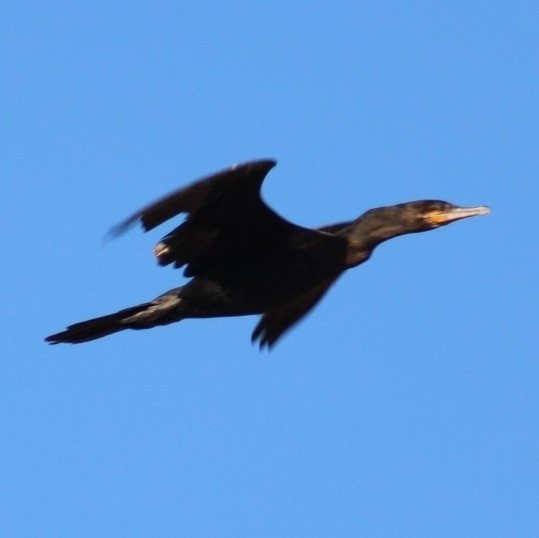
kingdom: Animalia
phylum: Chordata
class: Aves
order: Suliformes
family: Phalacrocoracidae
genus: Phalacrocorax
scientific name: Phalacrocorax brasilianus
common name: Neotropic cormorant
